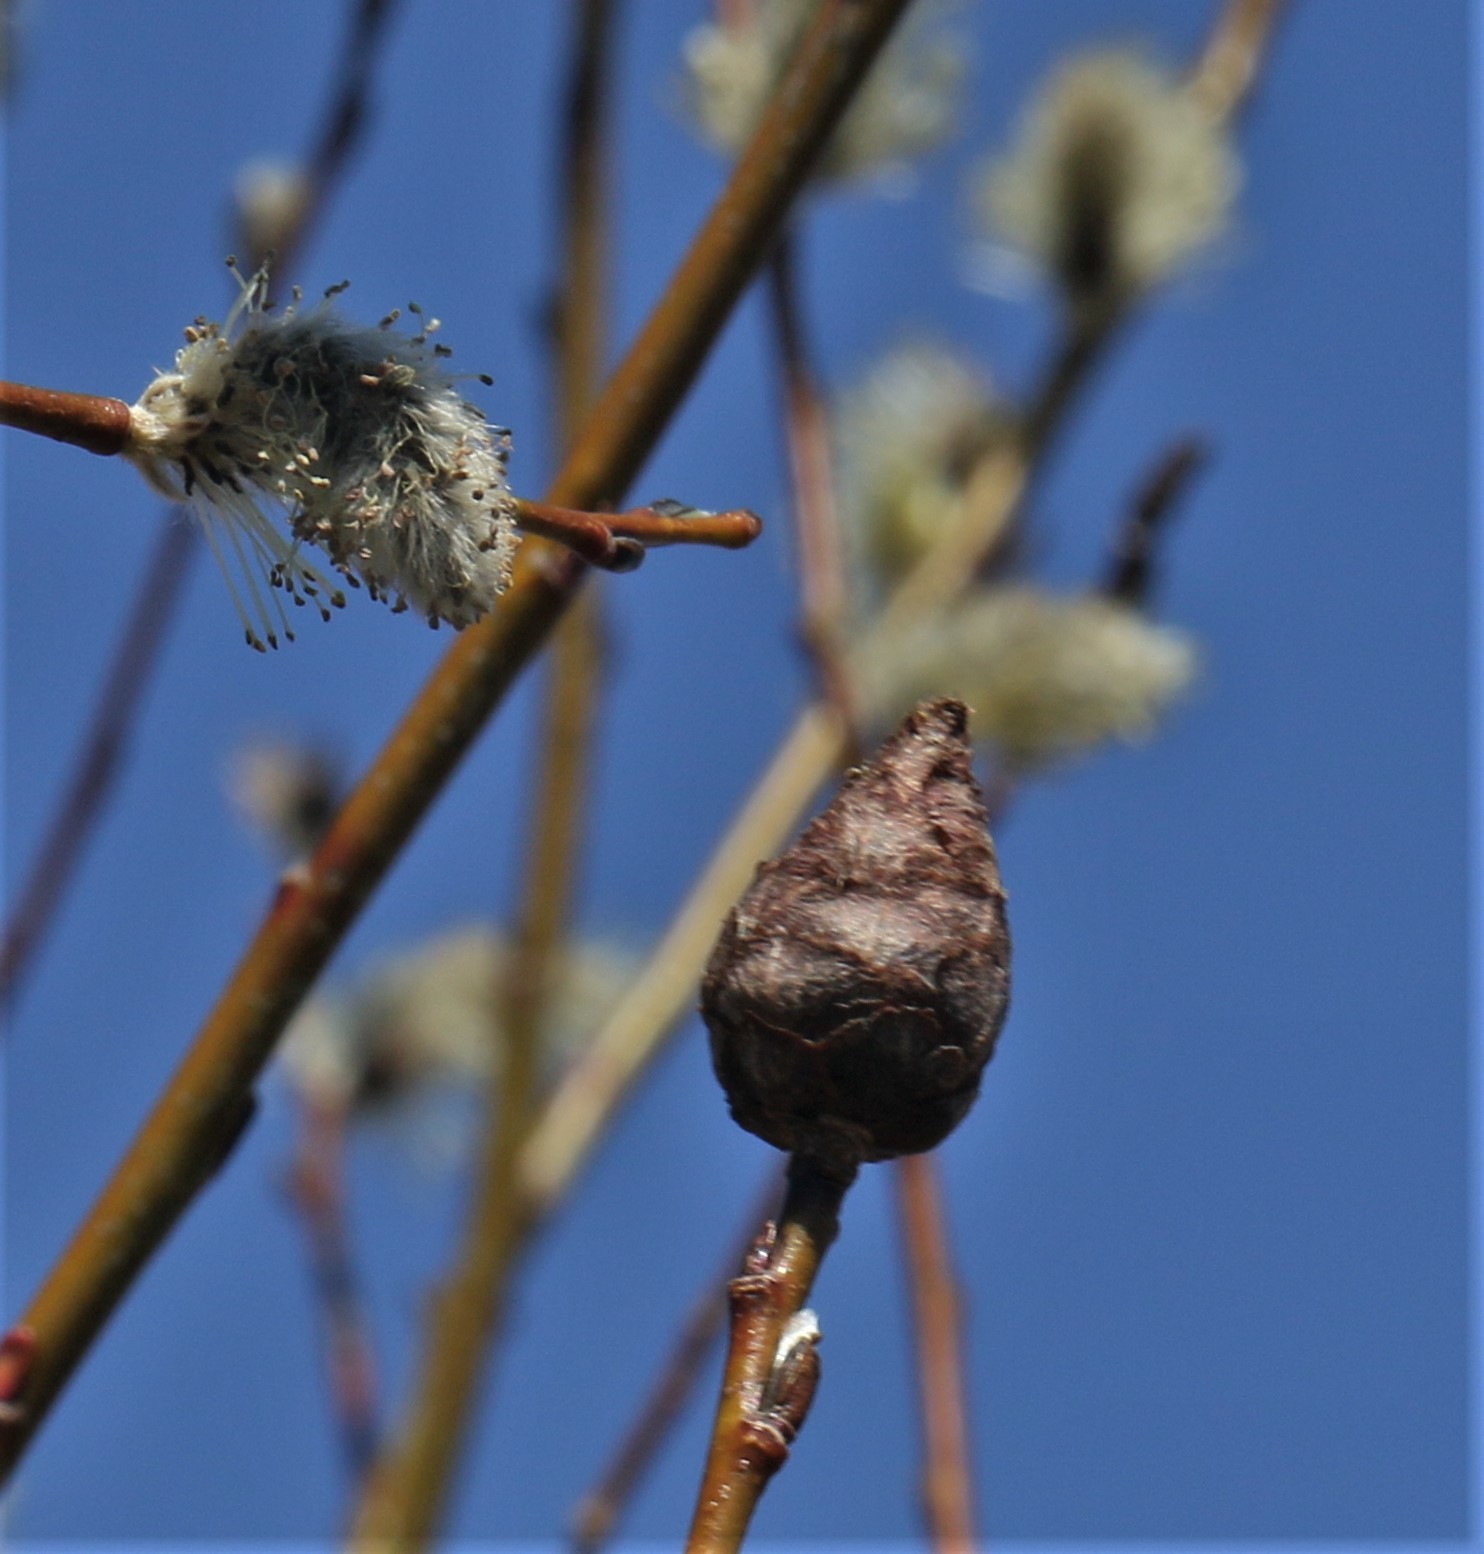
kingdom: Animalia
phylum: Arthropoda
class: Insecta
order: Diptera
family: Cecidomyiidae
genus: Rabdophaga
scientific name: Rabdophaga strobiloides
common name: Willow pinecone gall midge
